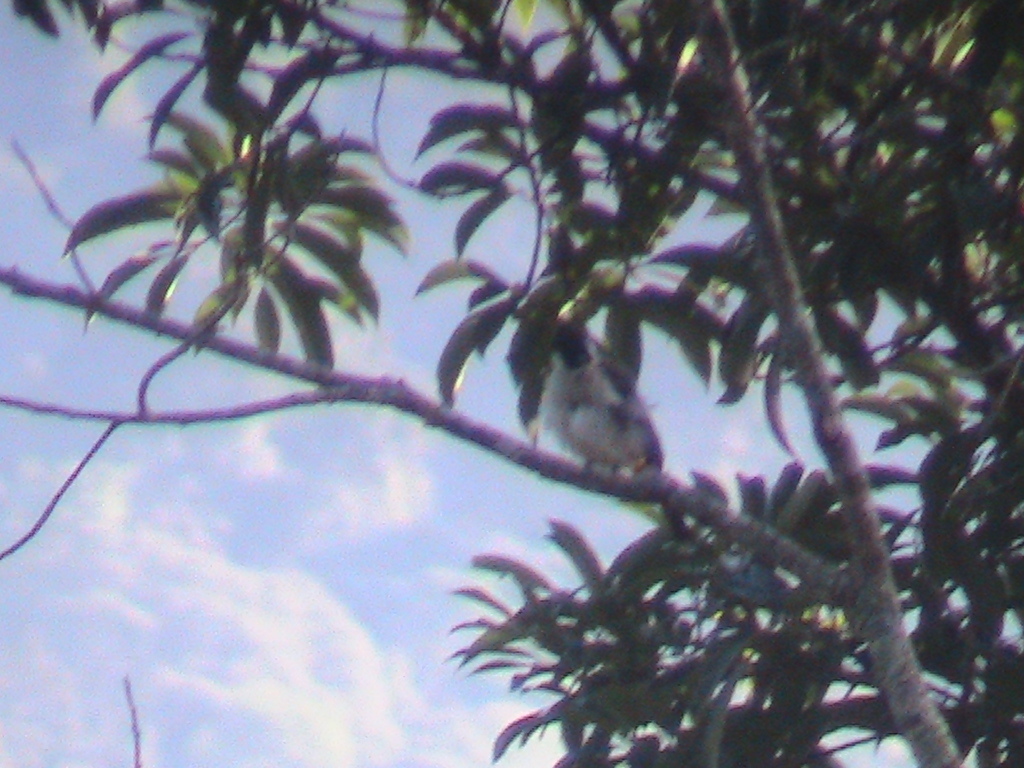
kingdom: Animalia
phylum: Chordata
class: Aves
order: Passeriformes
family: Pycnonotidae
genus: Pycnonotus
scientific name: Pycnonotus aurigaster
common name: Sooty-headed bulbul
